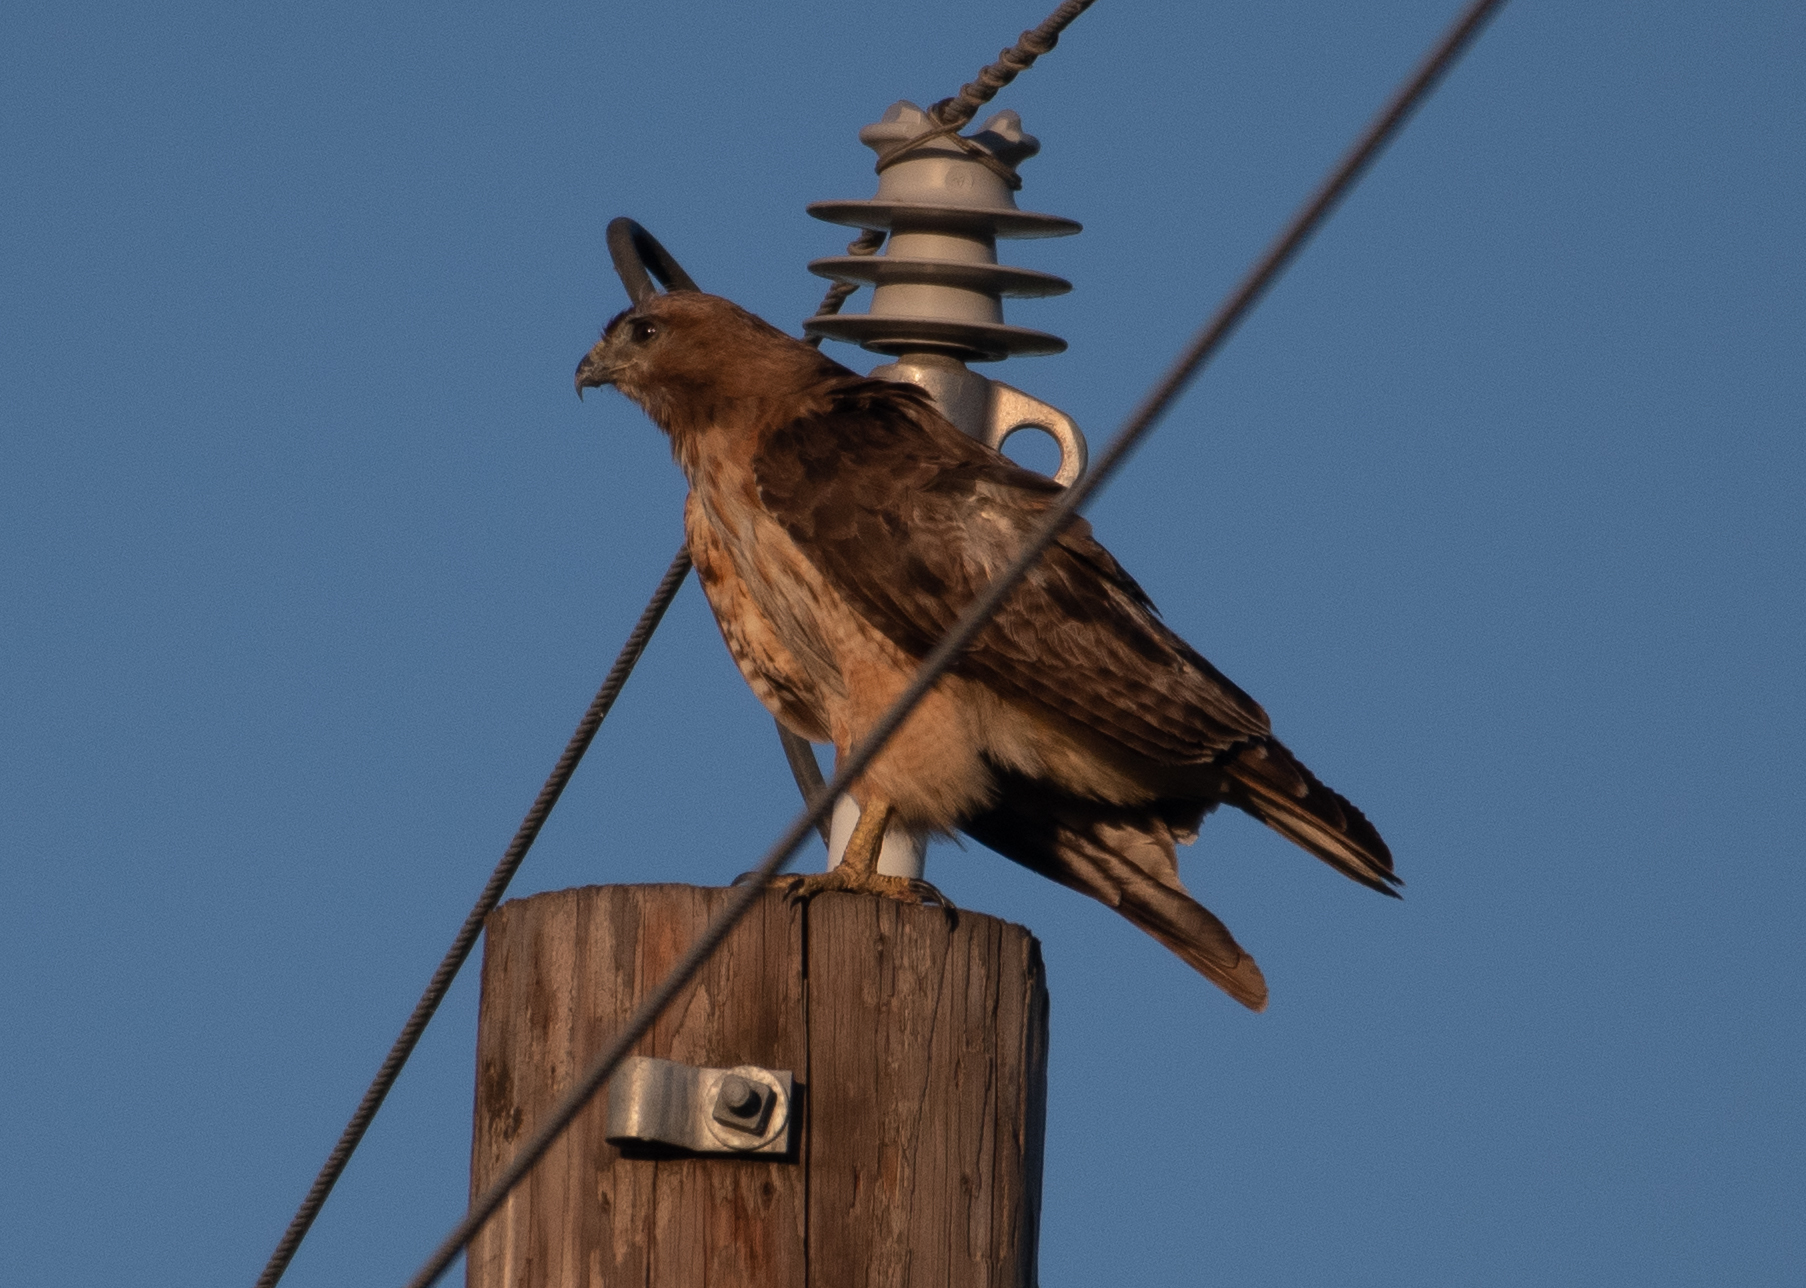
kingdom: Animalia
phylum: Chordata
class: Aves
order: Accipitriformes
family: Accipitridae
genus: Buteo
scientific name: Buteo jamaicensis
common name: Red-tailed hawk
